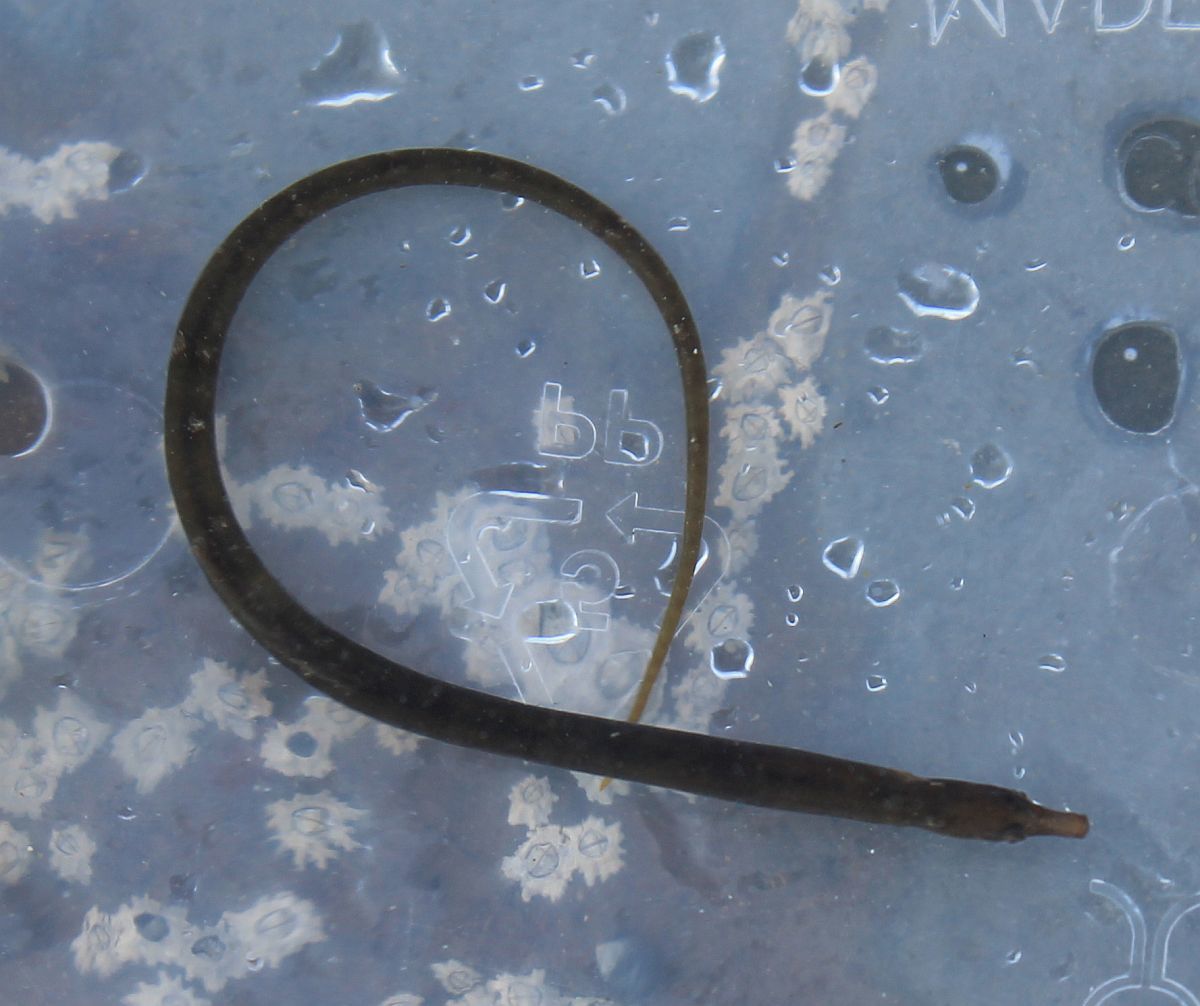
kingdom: Animalia
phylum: Chordata
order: Syngnathiformes
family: Syngnathidae
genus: Nerophis
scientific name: Nerophis lumbriciformis
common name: Worm pipefish
